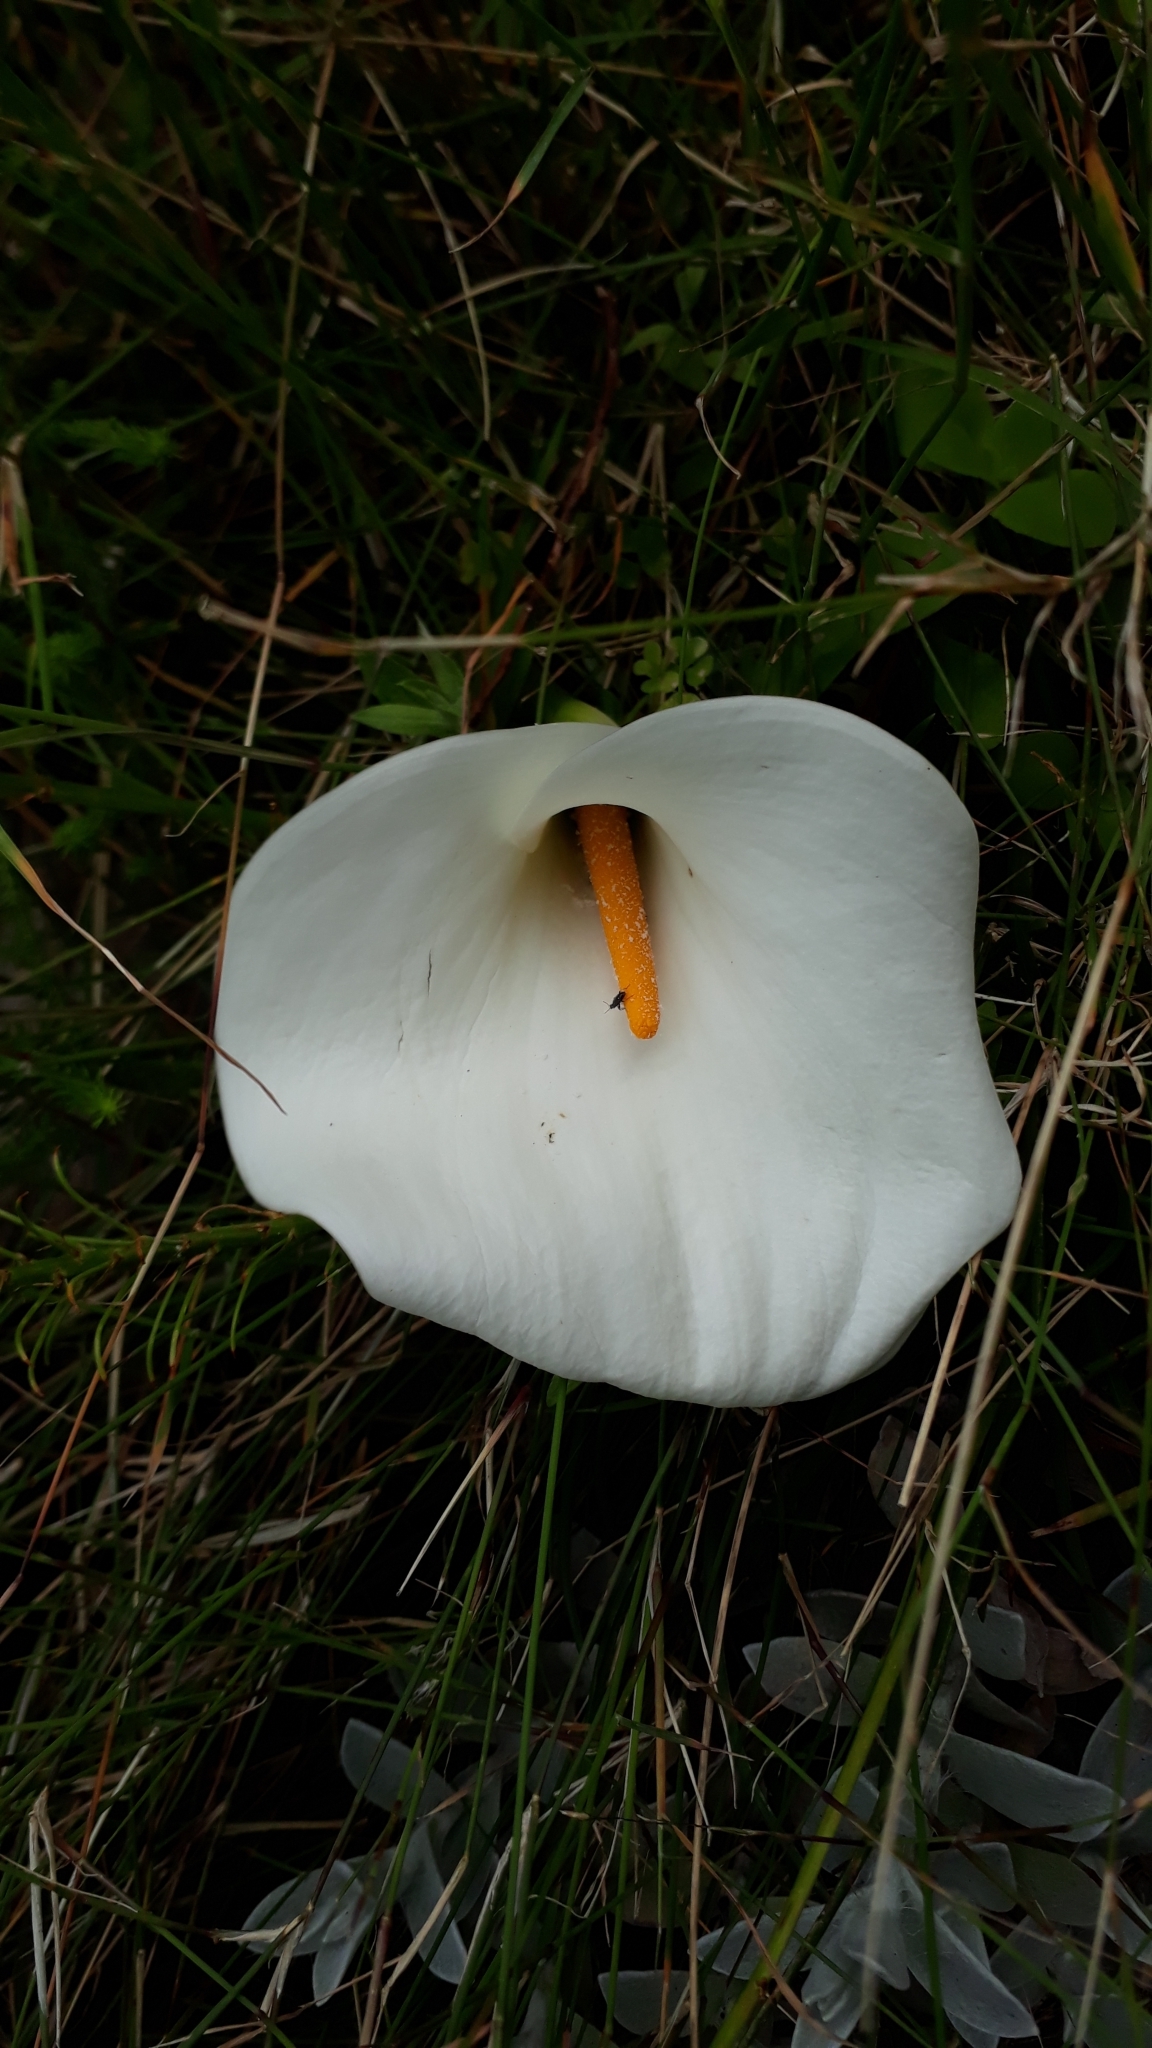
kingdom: Plantae
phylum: Tracheophyta
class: Liliopsida
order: Alismatales
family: Araceae
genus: Zantedeschia
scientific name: Zantedeschia aethiopica
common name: Altar-lily
